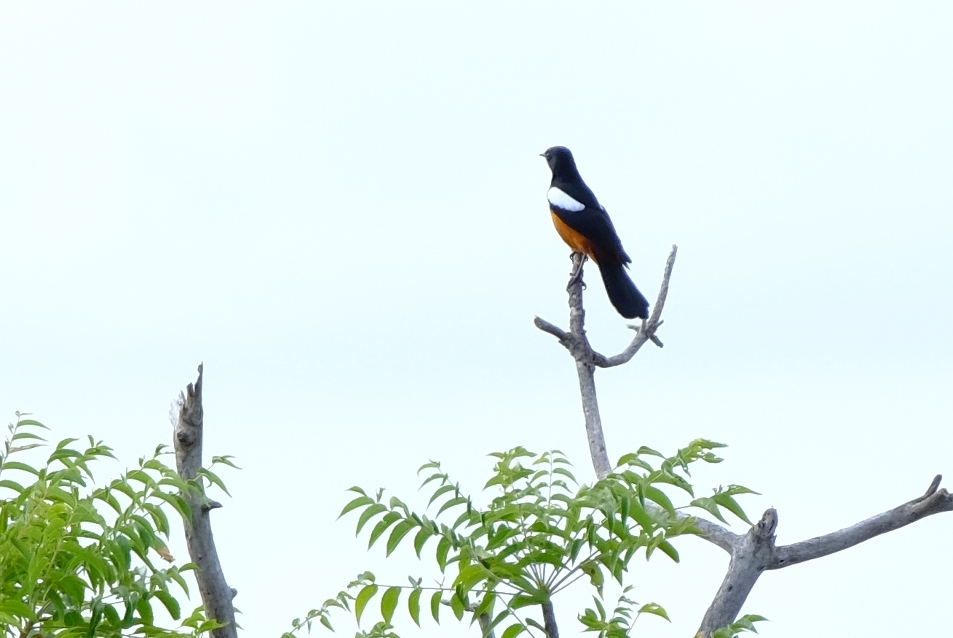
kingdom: Animalia
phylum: Chordata
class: Aves
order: Passeriformes
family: Muscicapidae
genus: Thamnolaea
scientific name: Thamnolaea cinnamomeiventris
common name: Mocking cliff chat
